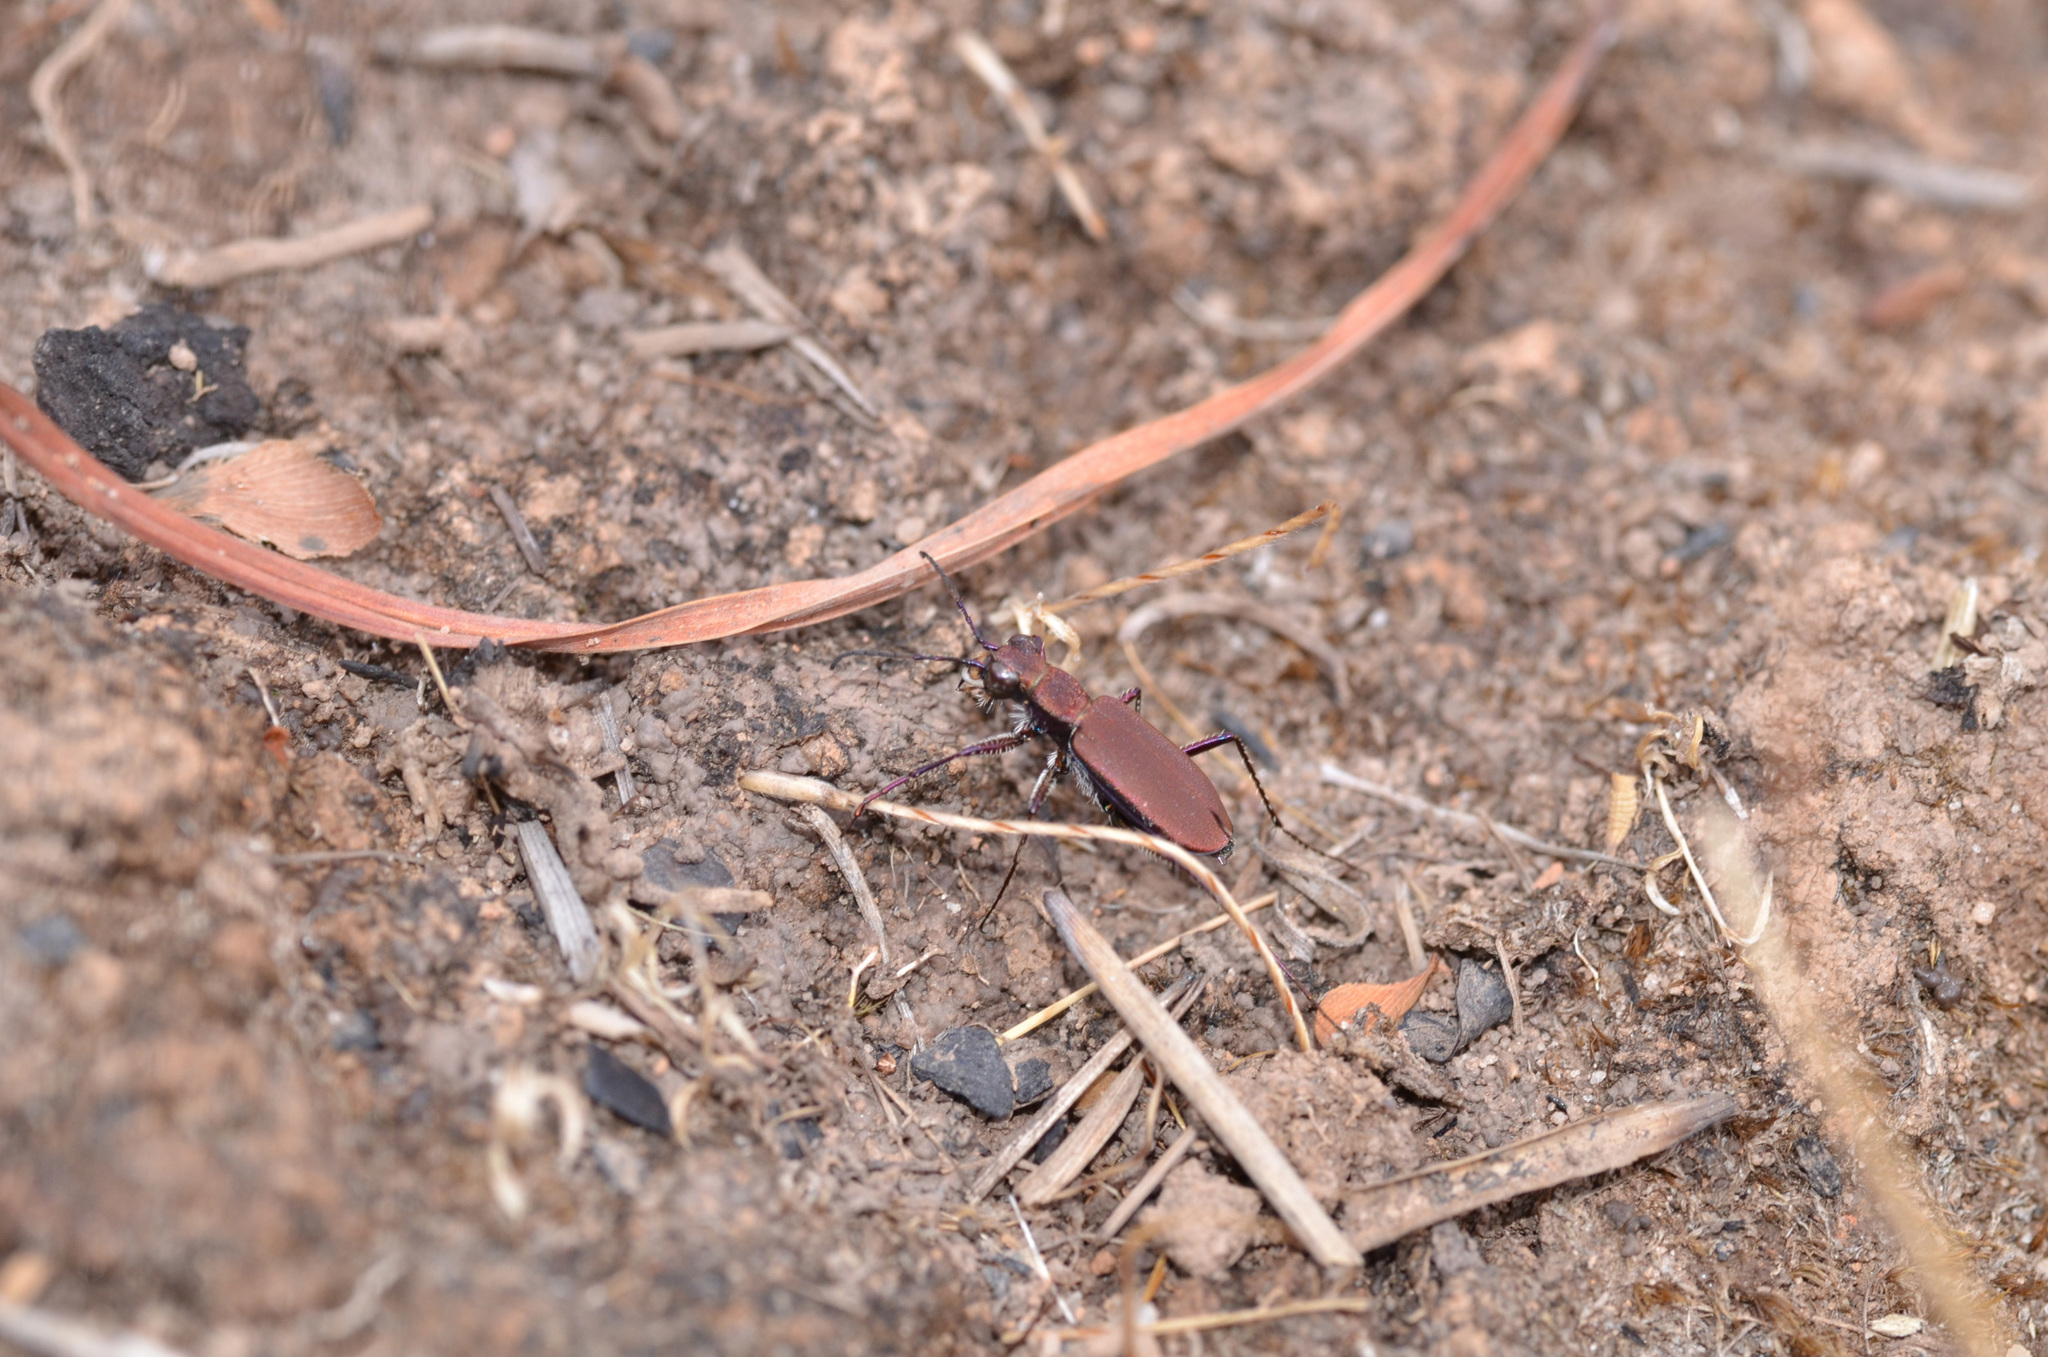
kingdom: Animalia
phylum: Arthropoda
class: Insecta
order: Coleoptera
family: Carabidae
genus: Lophyra
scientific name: Lophyra infuscatula
